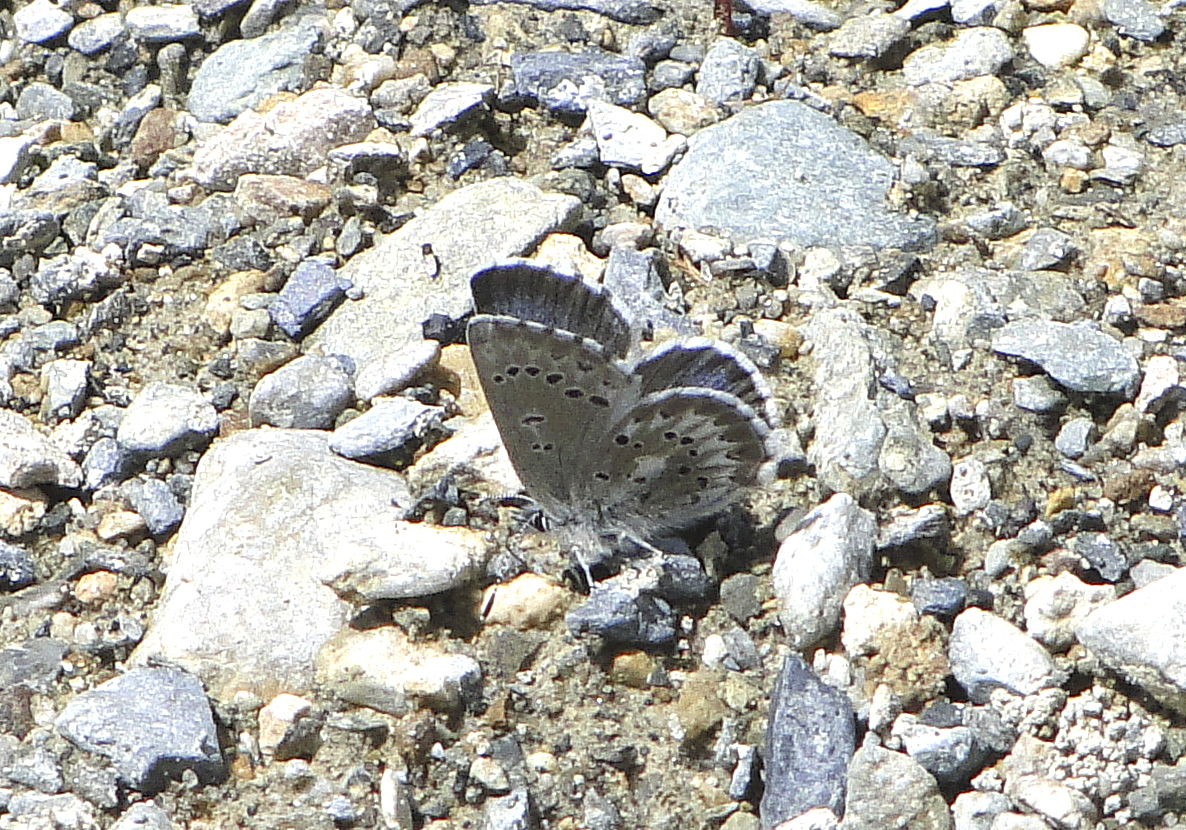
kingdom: Animalia
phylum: Arthropoda
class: Insecta
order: Lepidoptera
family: Lycaenidae
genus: Glaucopsyche
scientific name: Glaucopsyche piasus
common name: Arrowhead blue
